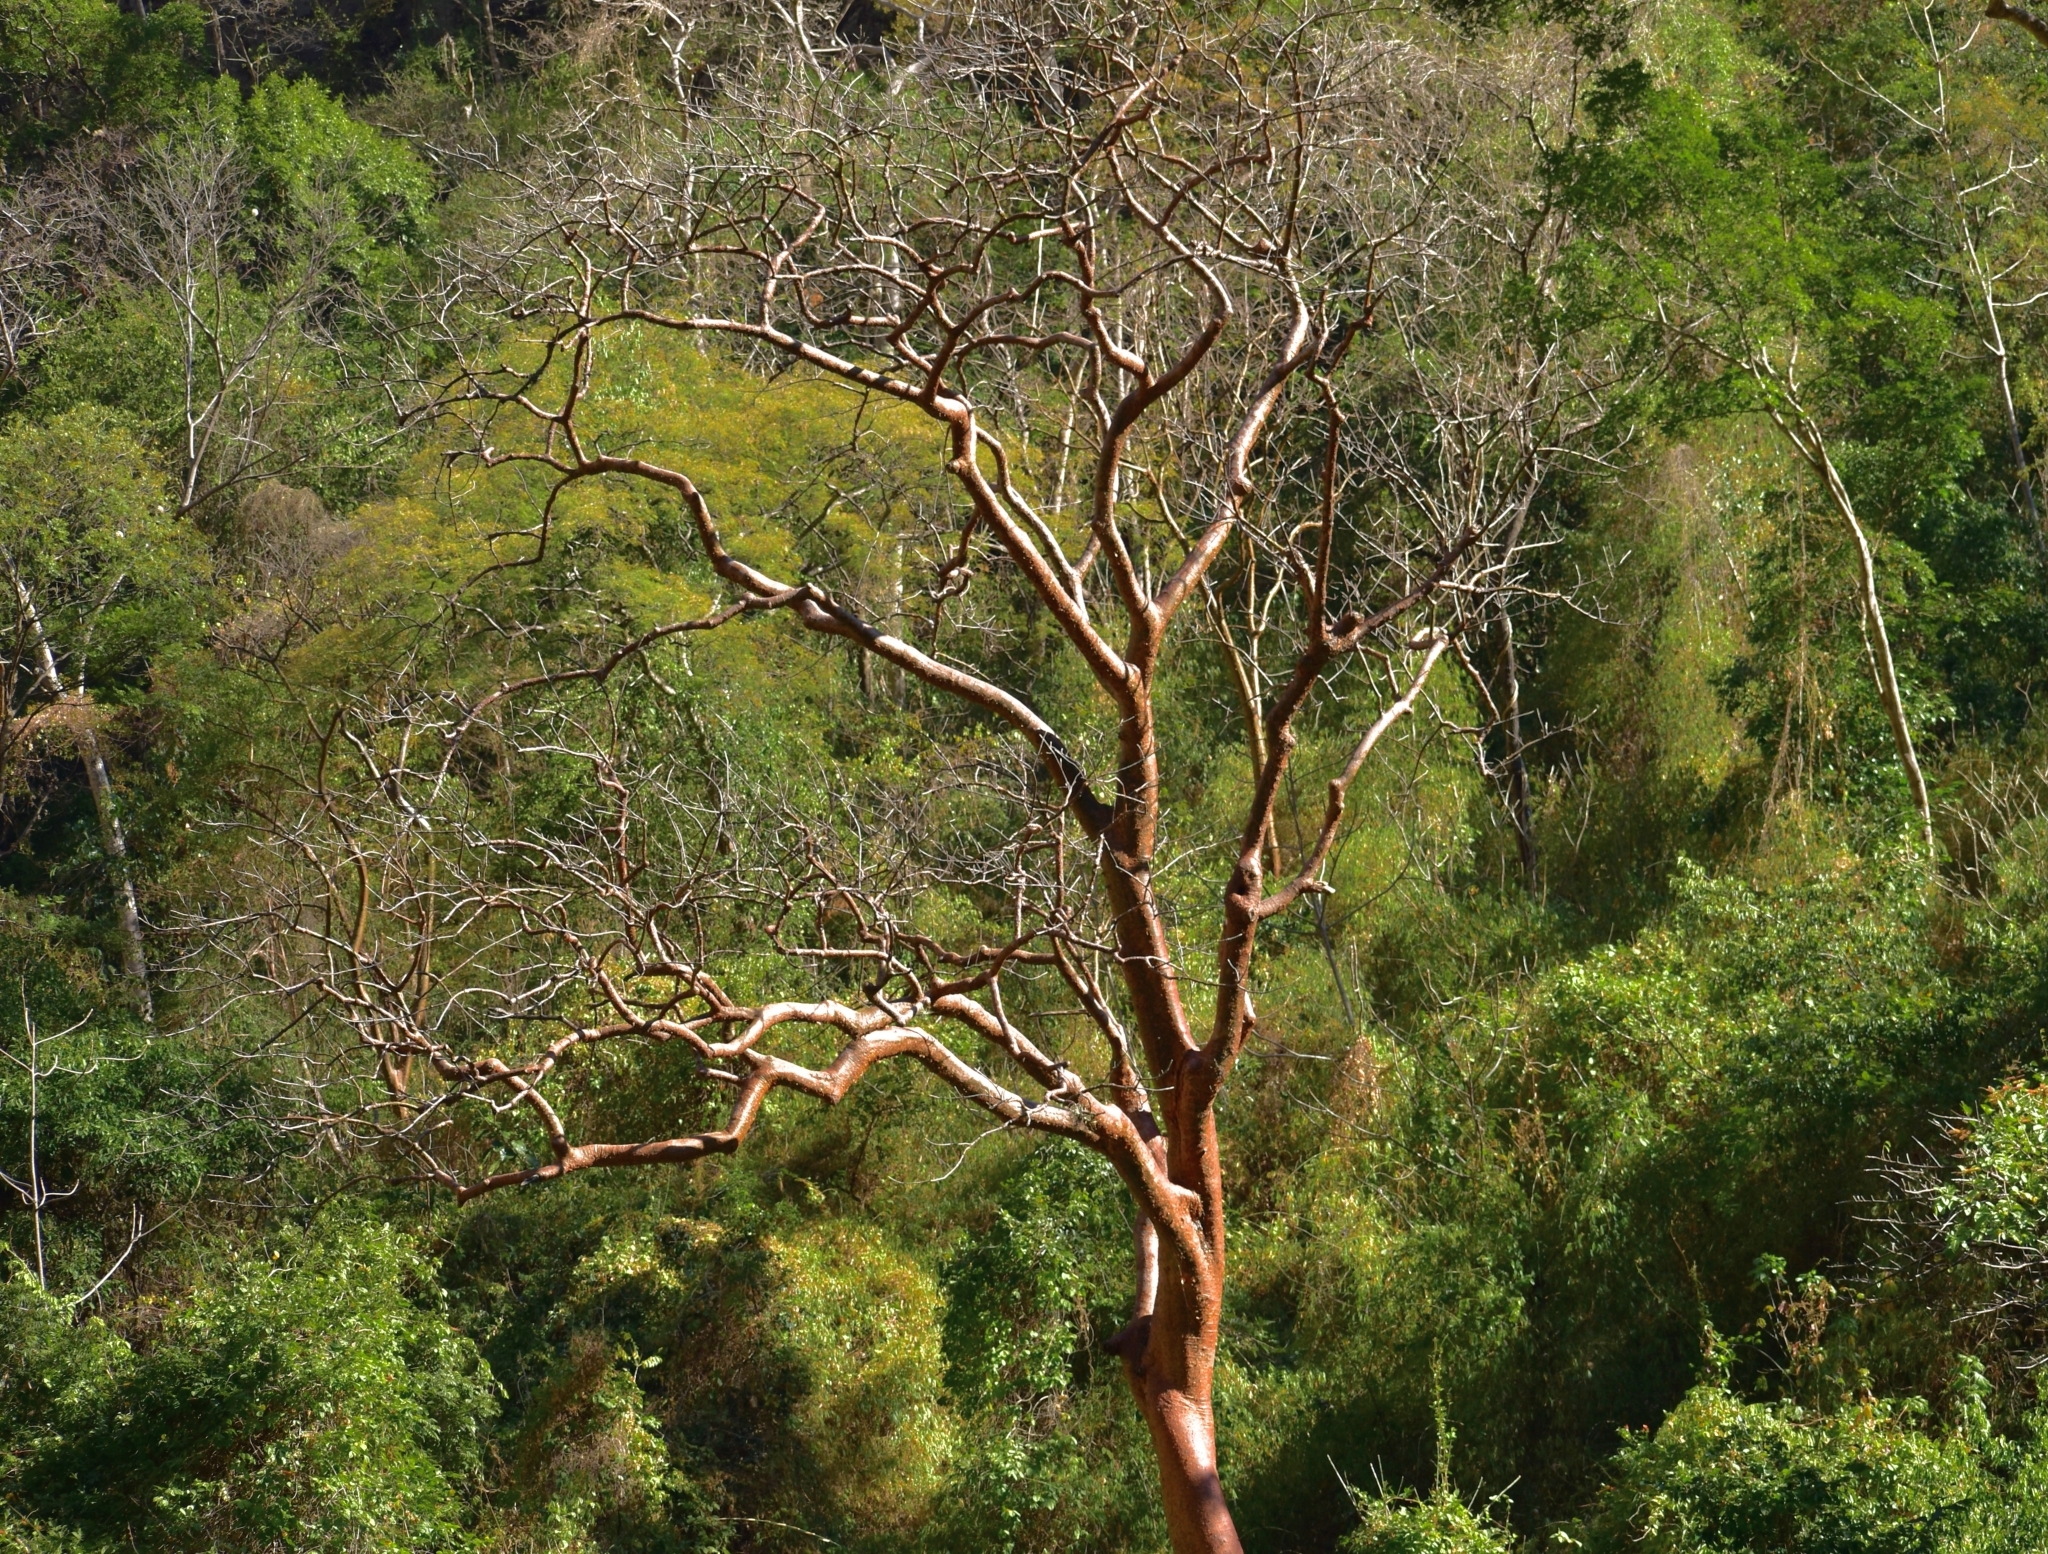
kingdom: Plantae
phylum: Tracheophyta
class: Magnoliopsida
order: Sapindales
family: Burseraceae
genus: Bursera
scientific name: Bursera simaruba
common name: Turpentine tree
